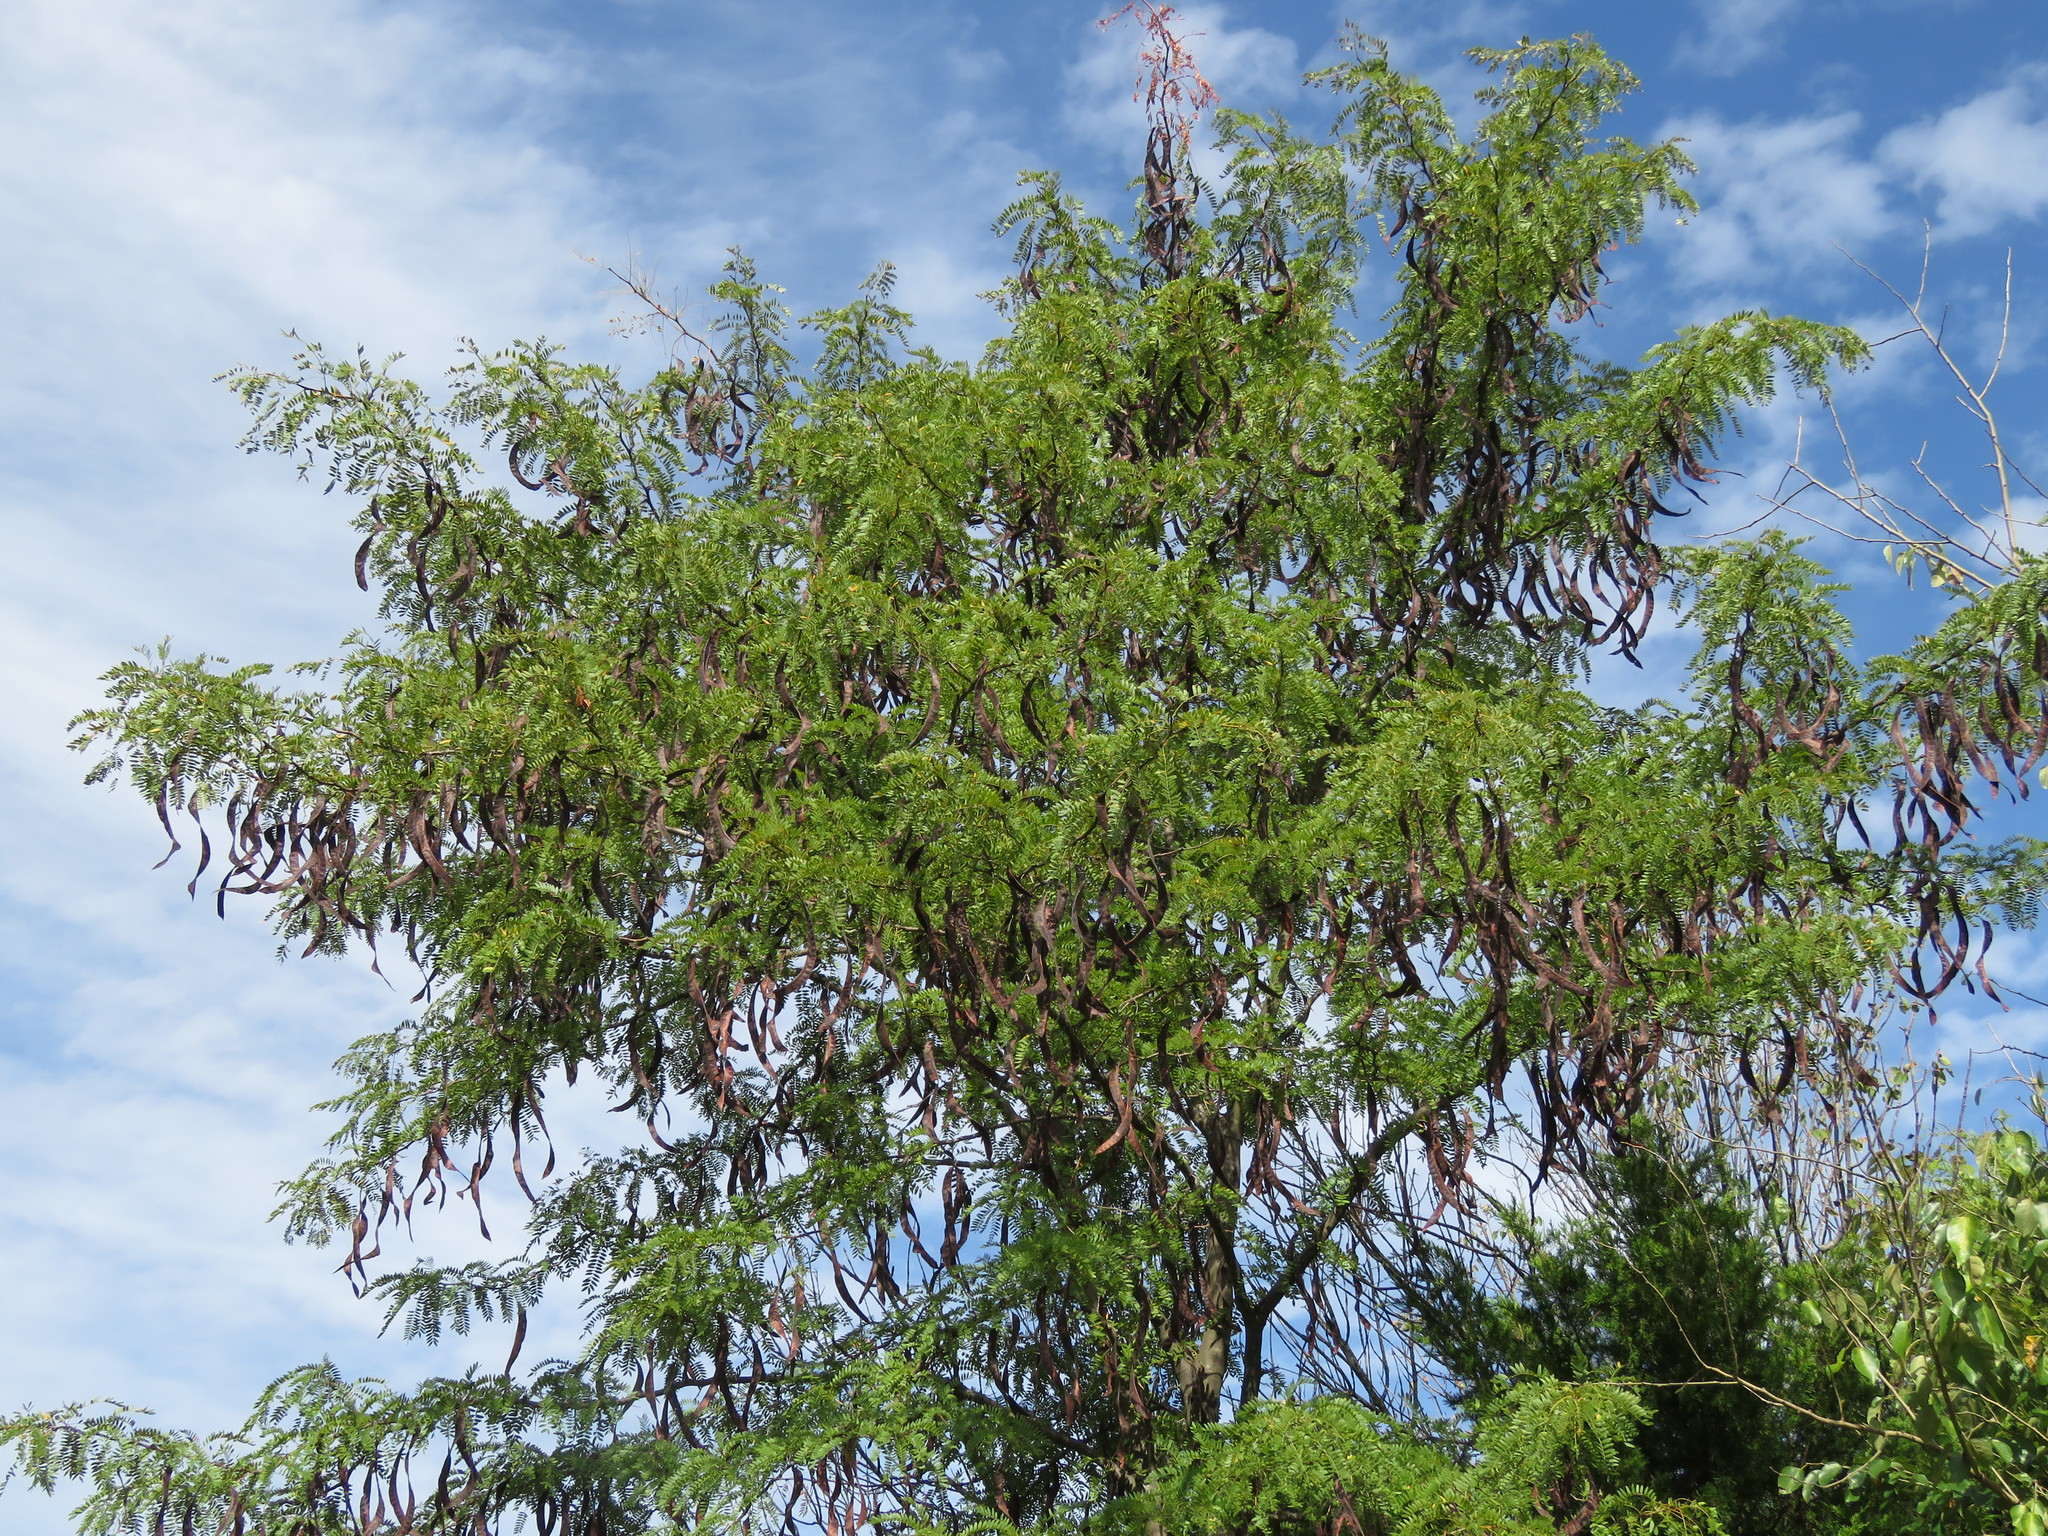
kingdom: Plantae
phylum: Tracheophyta
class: Magnoliopsida
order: Fabales
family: Fabaceae
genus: Gleditsia
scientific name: Gleditsia triacanthos
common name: Common honeylocust
